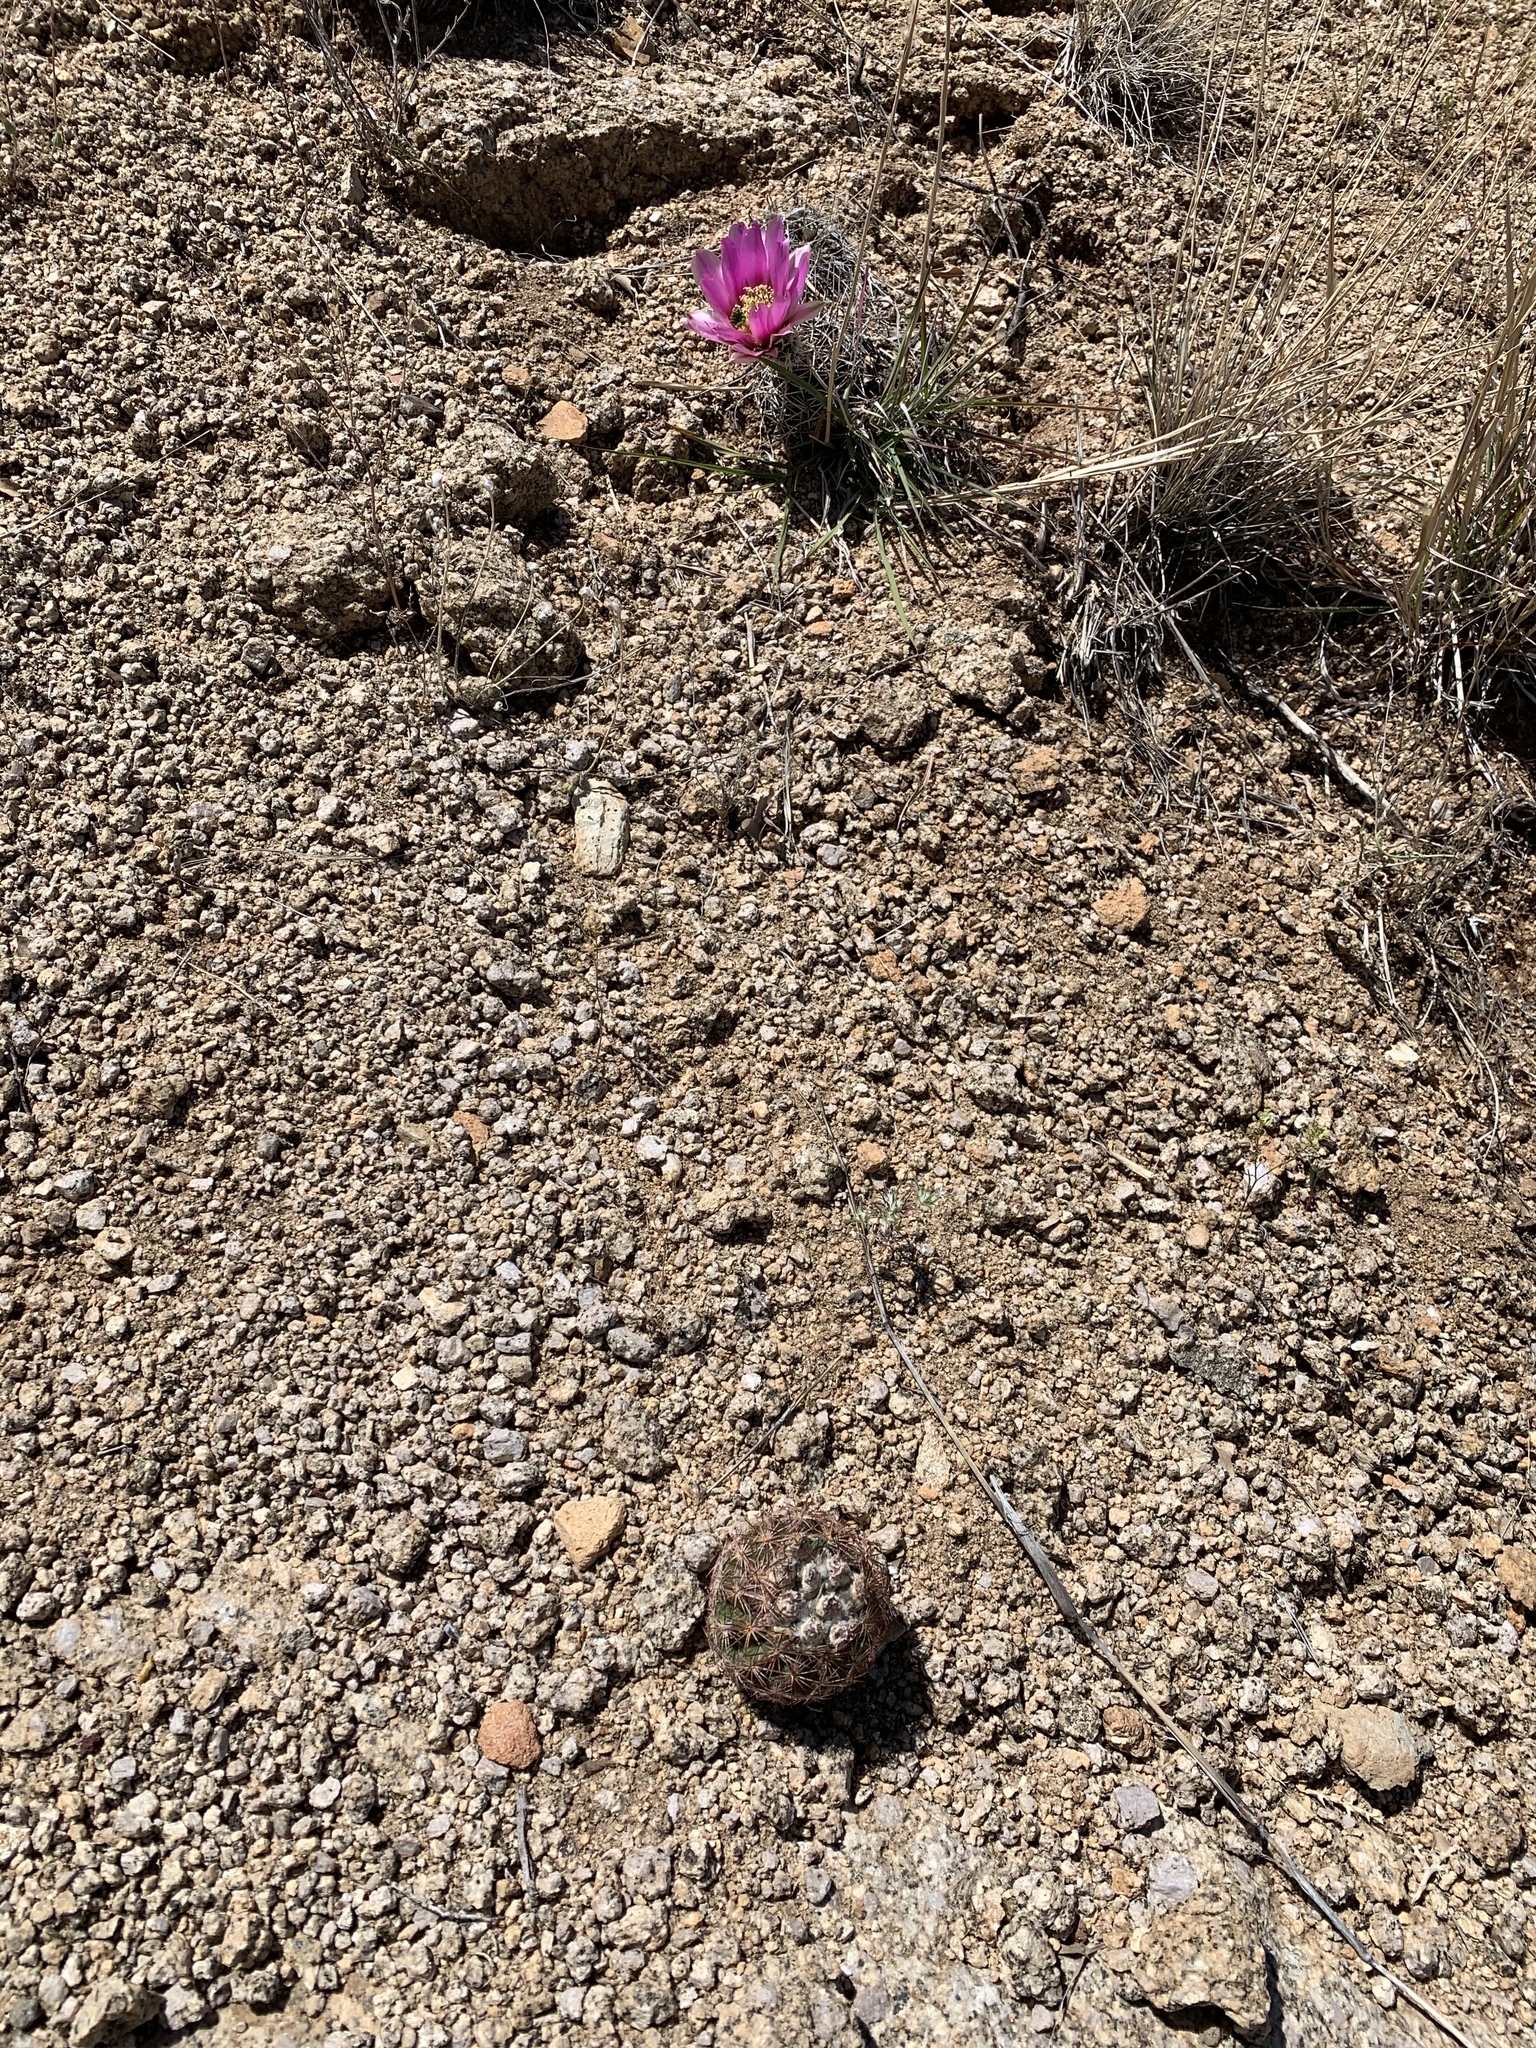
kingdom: Plantae
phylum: Tracheophyta
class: Magnoliopsida
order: Caryophyllales
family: Cactaceae
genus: Echinocereus
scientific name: Echinocereus fendleri
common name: Fendler's hedgehog cactus
